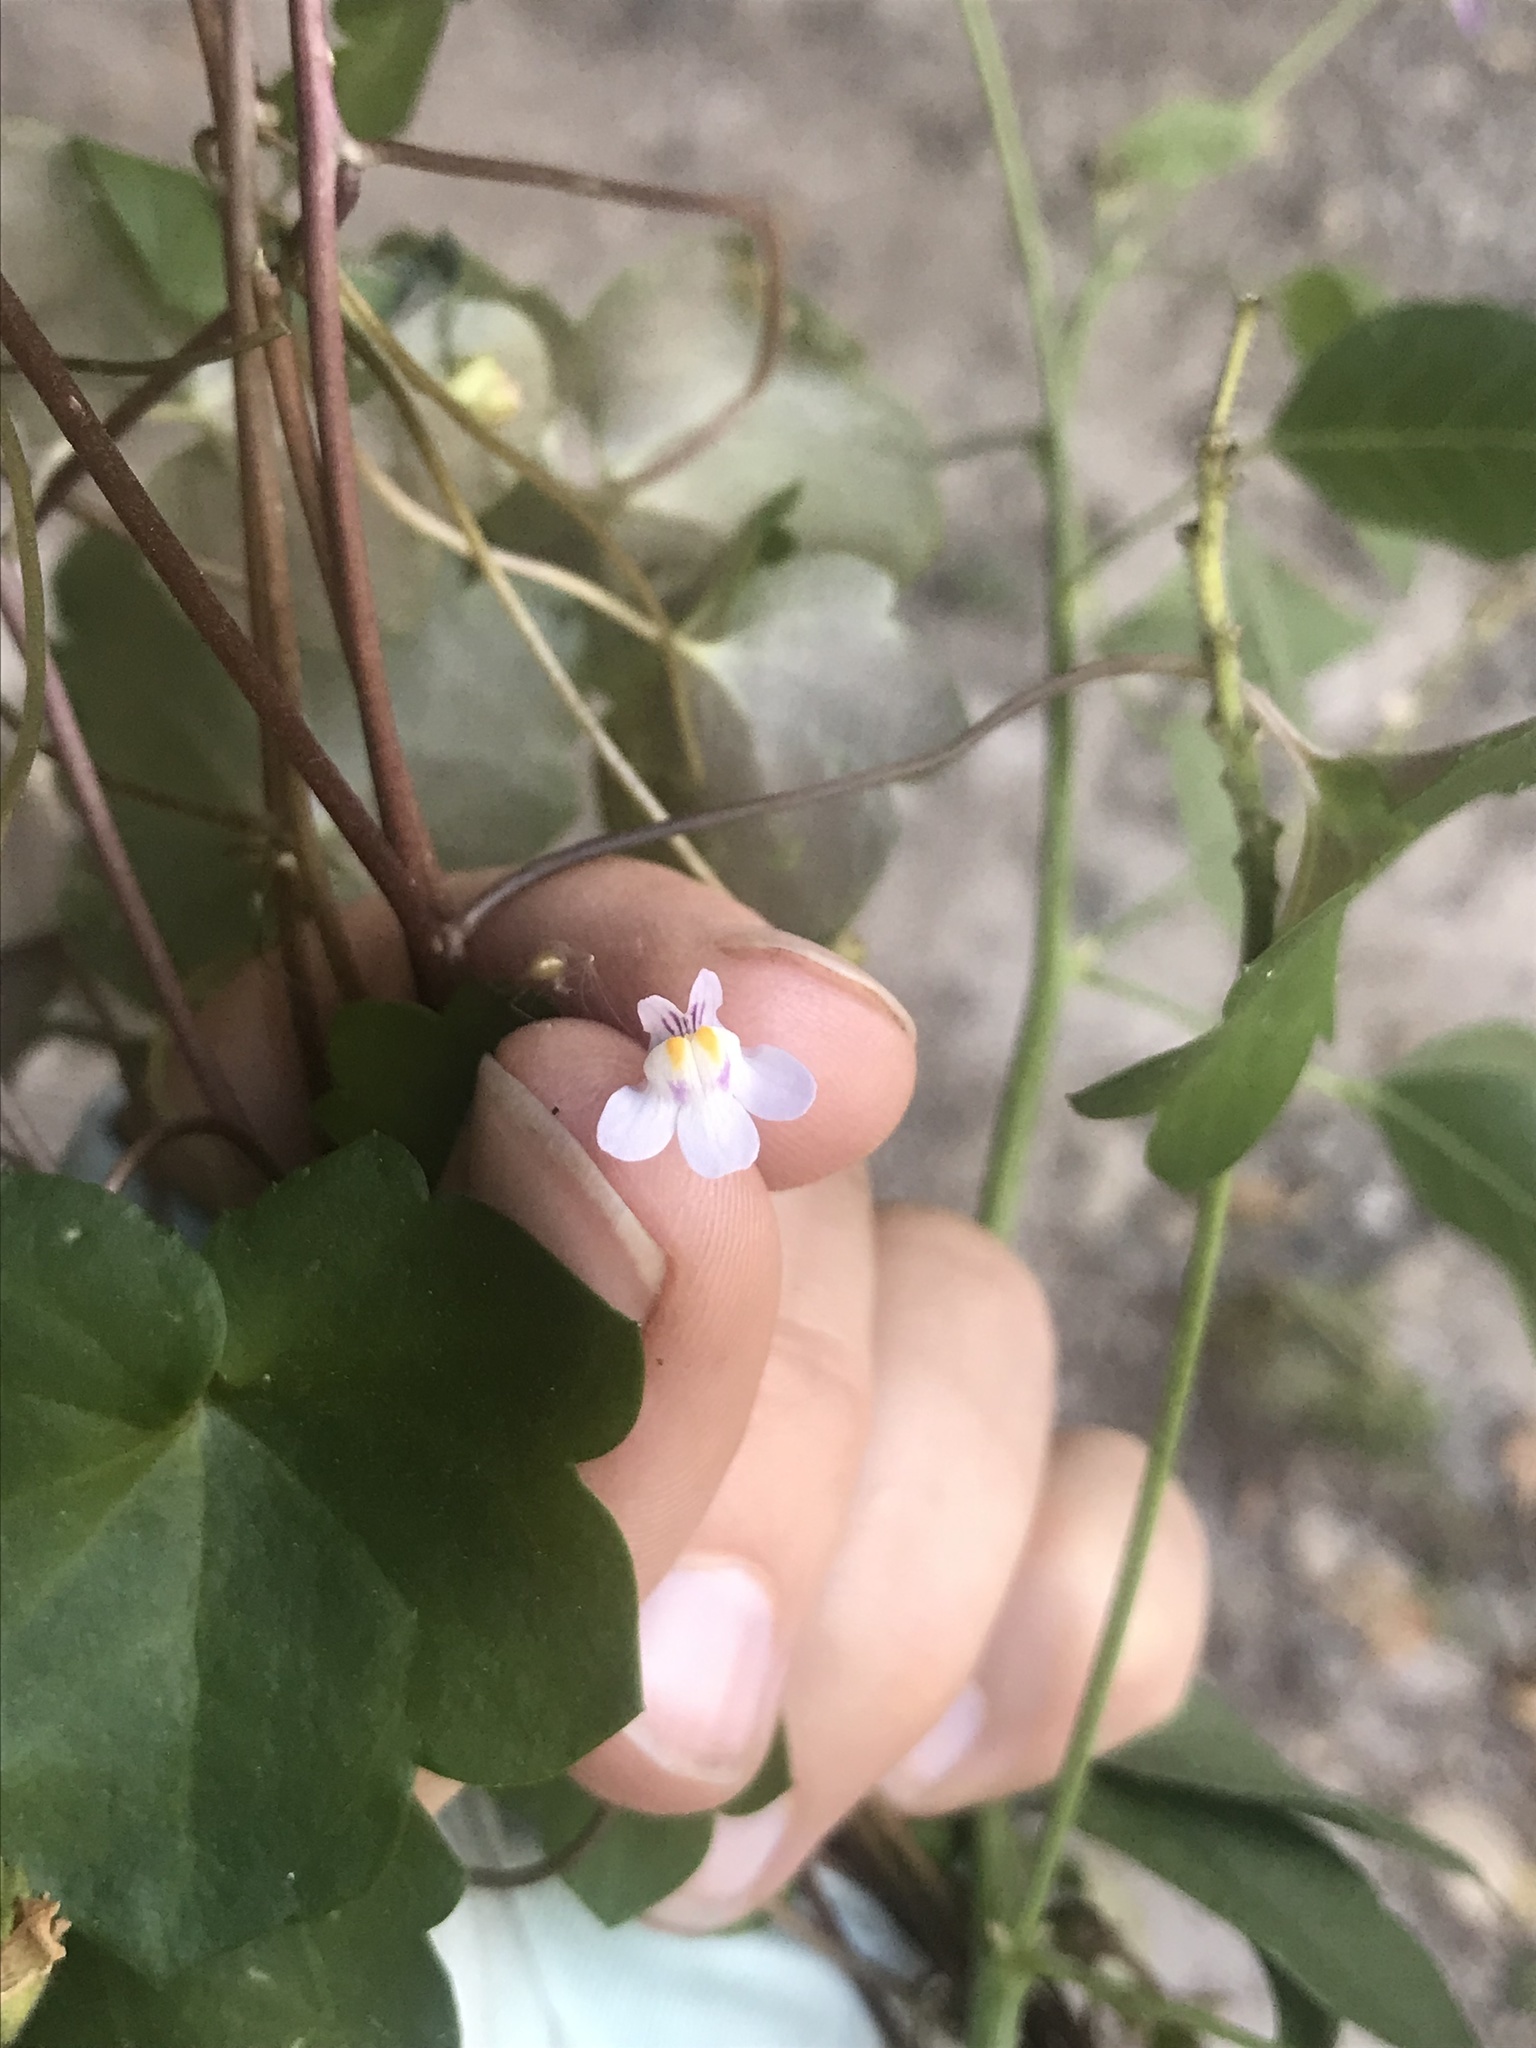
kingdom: Plantae
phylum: Tracheophyta
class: Magnoliopsida
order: Lamiales
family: Plantaginaceae
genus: Cymbalaria
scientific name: Cymbalaria muralis
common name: Ivy-leaved toadflax
